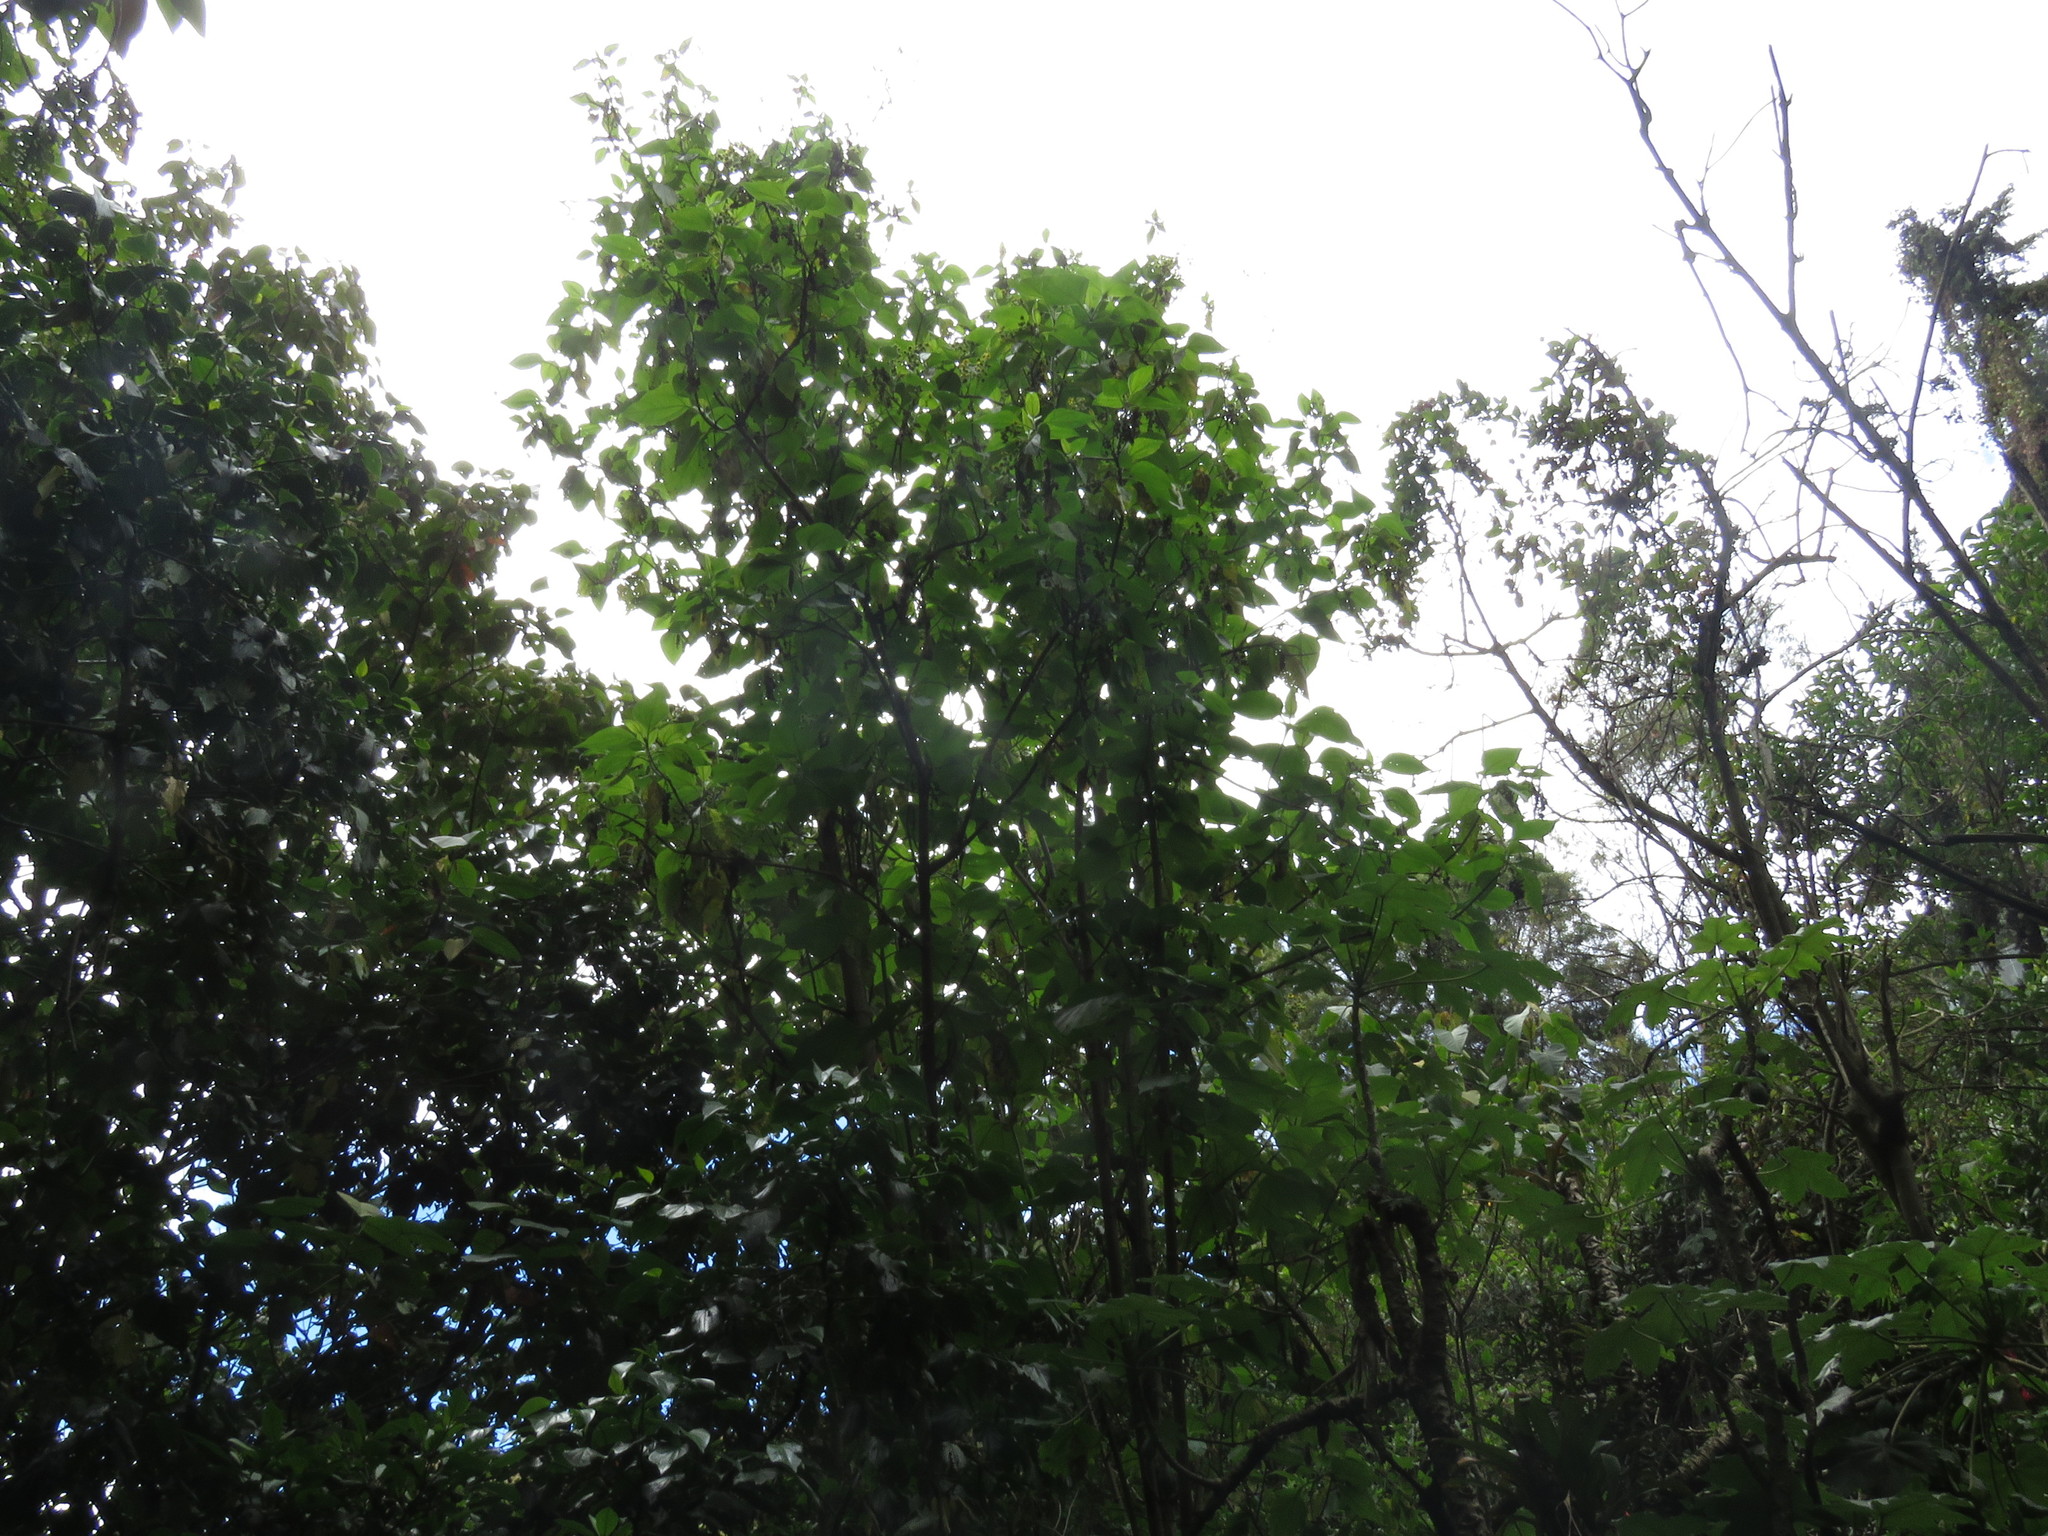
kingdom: Plantae
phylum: Tracheophyta
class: Magnoliopsida
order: Asterales
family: Asteraceae
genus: Smallanthus
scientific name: Smallanthus pyramidalis
